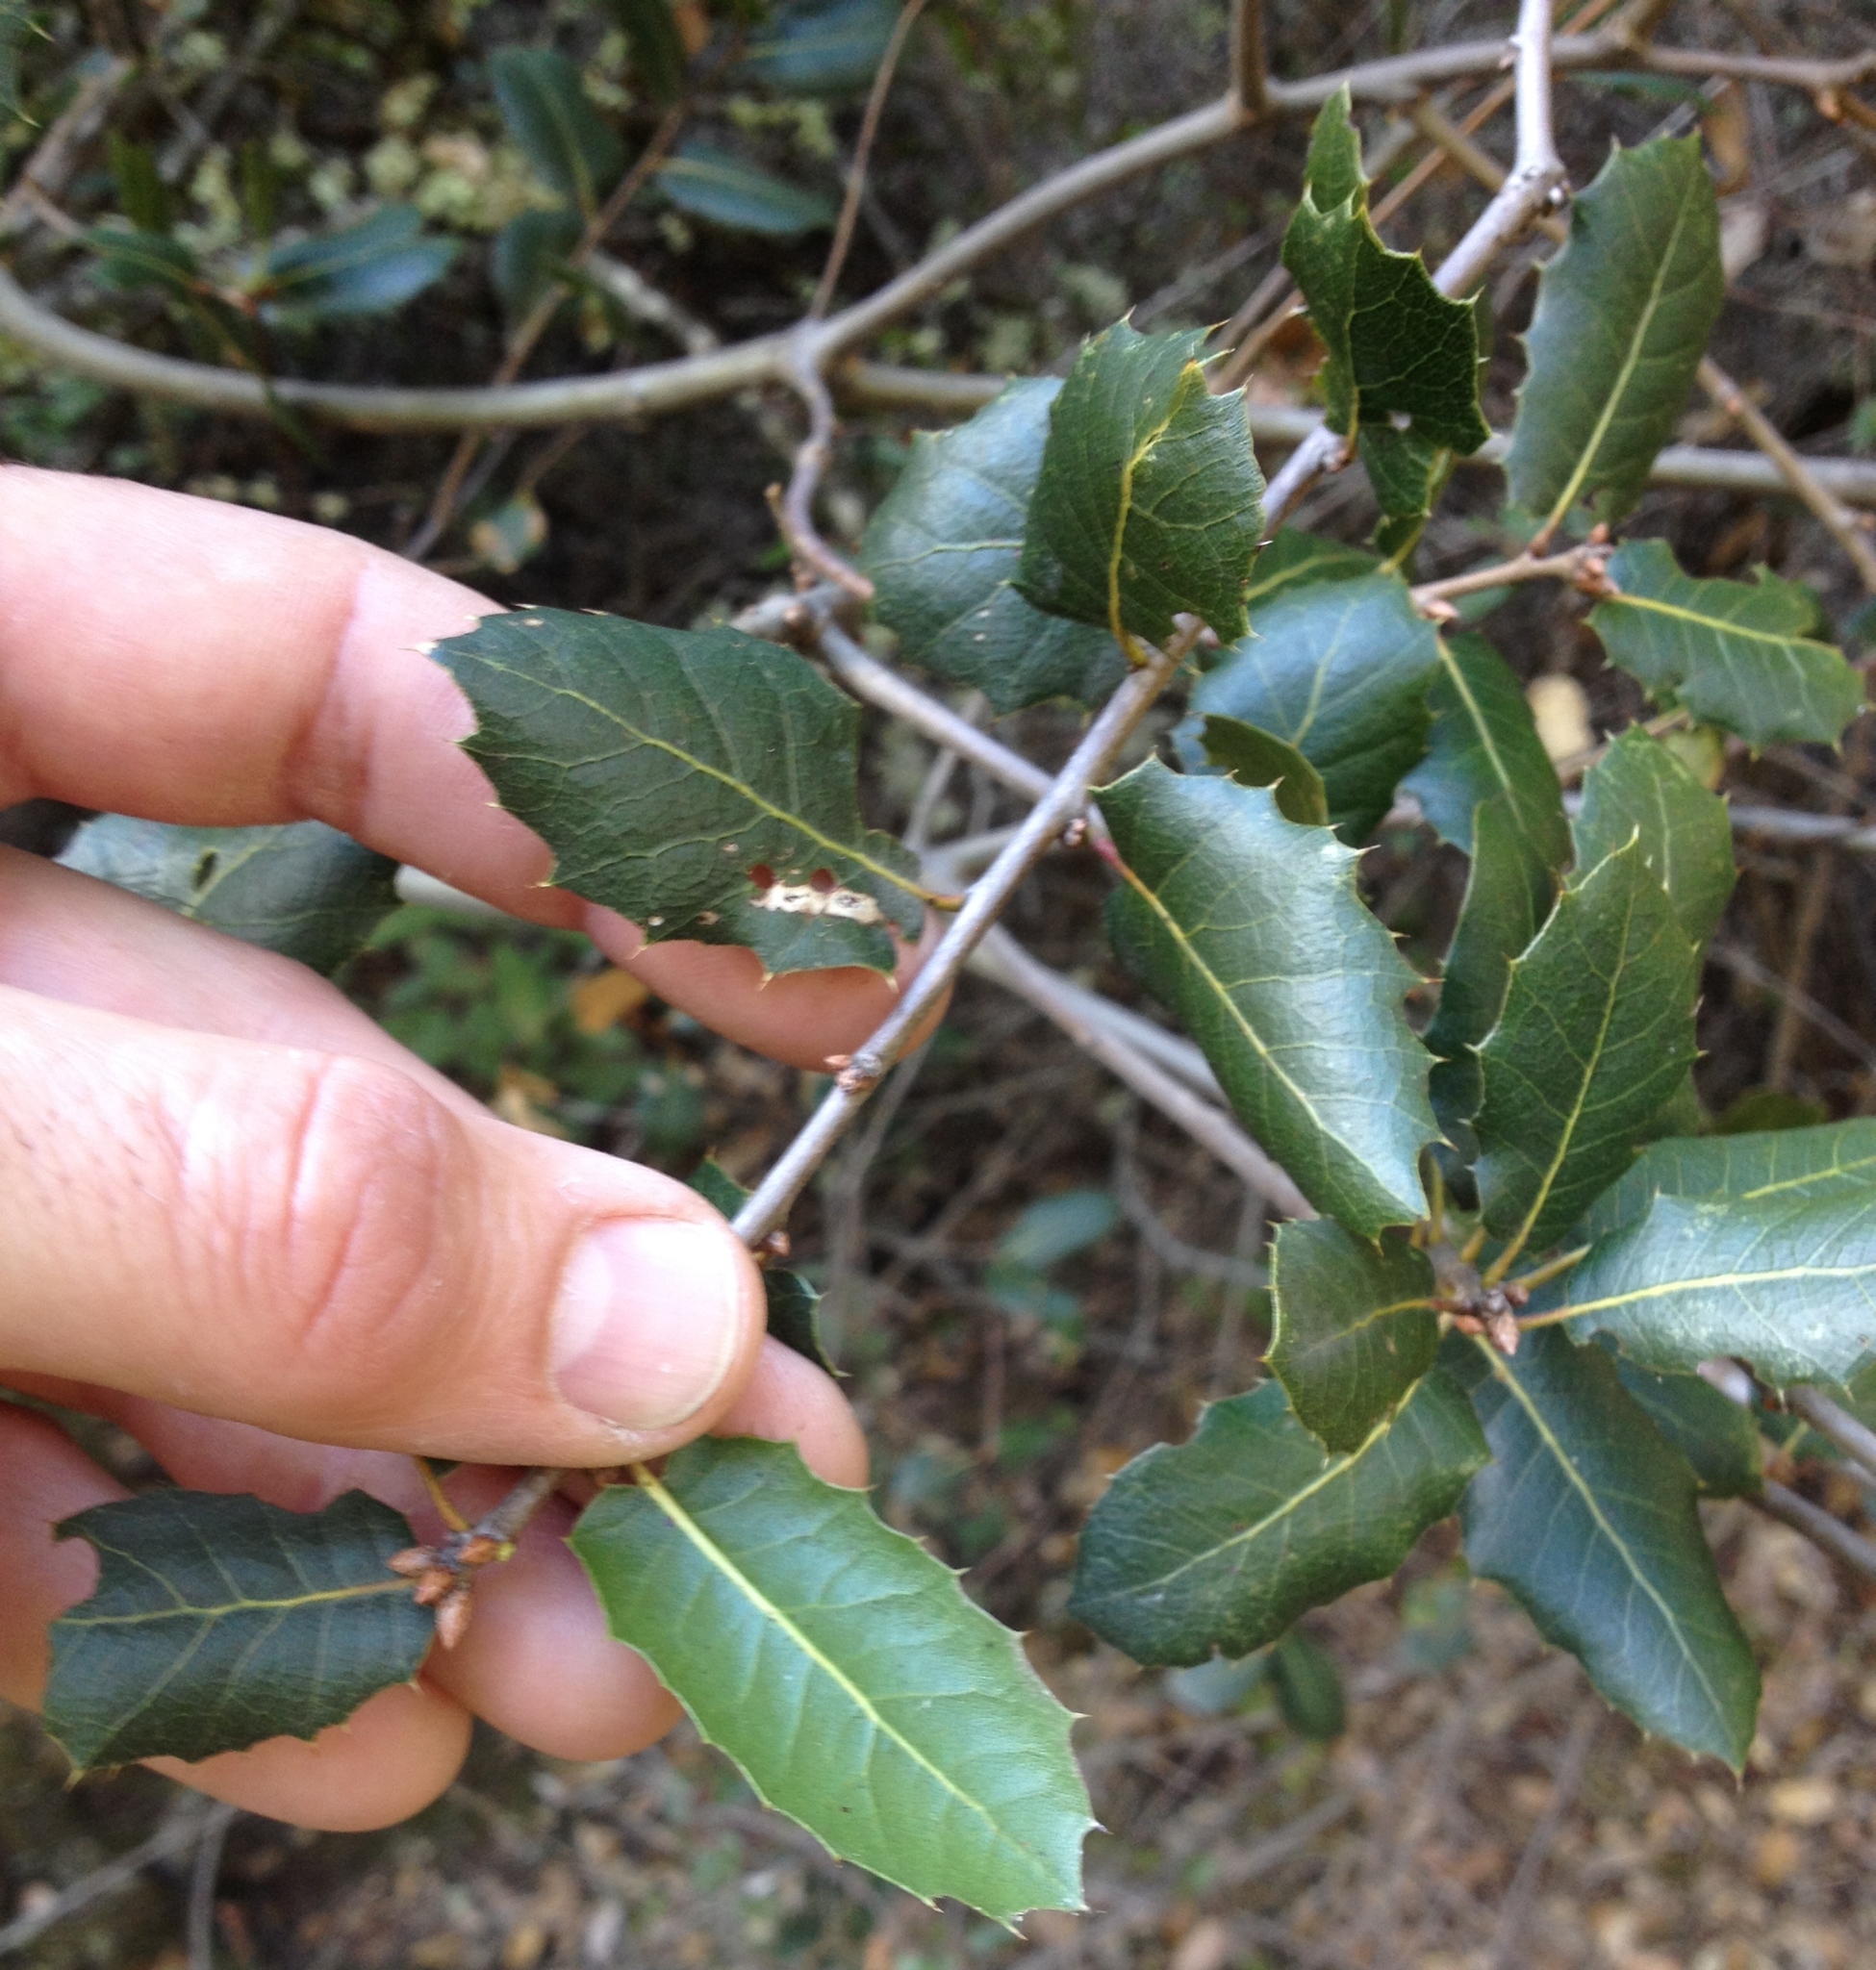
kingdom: Plantae
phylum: Tracheophyta
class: Magnoliopsida
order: Fagales
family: Fagaceae
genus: Quercus
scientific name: Quercus wislizeni
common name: Interior live oak
